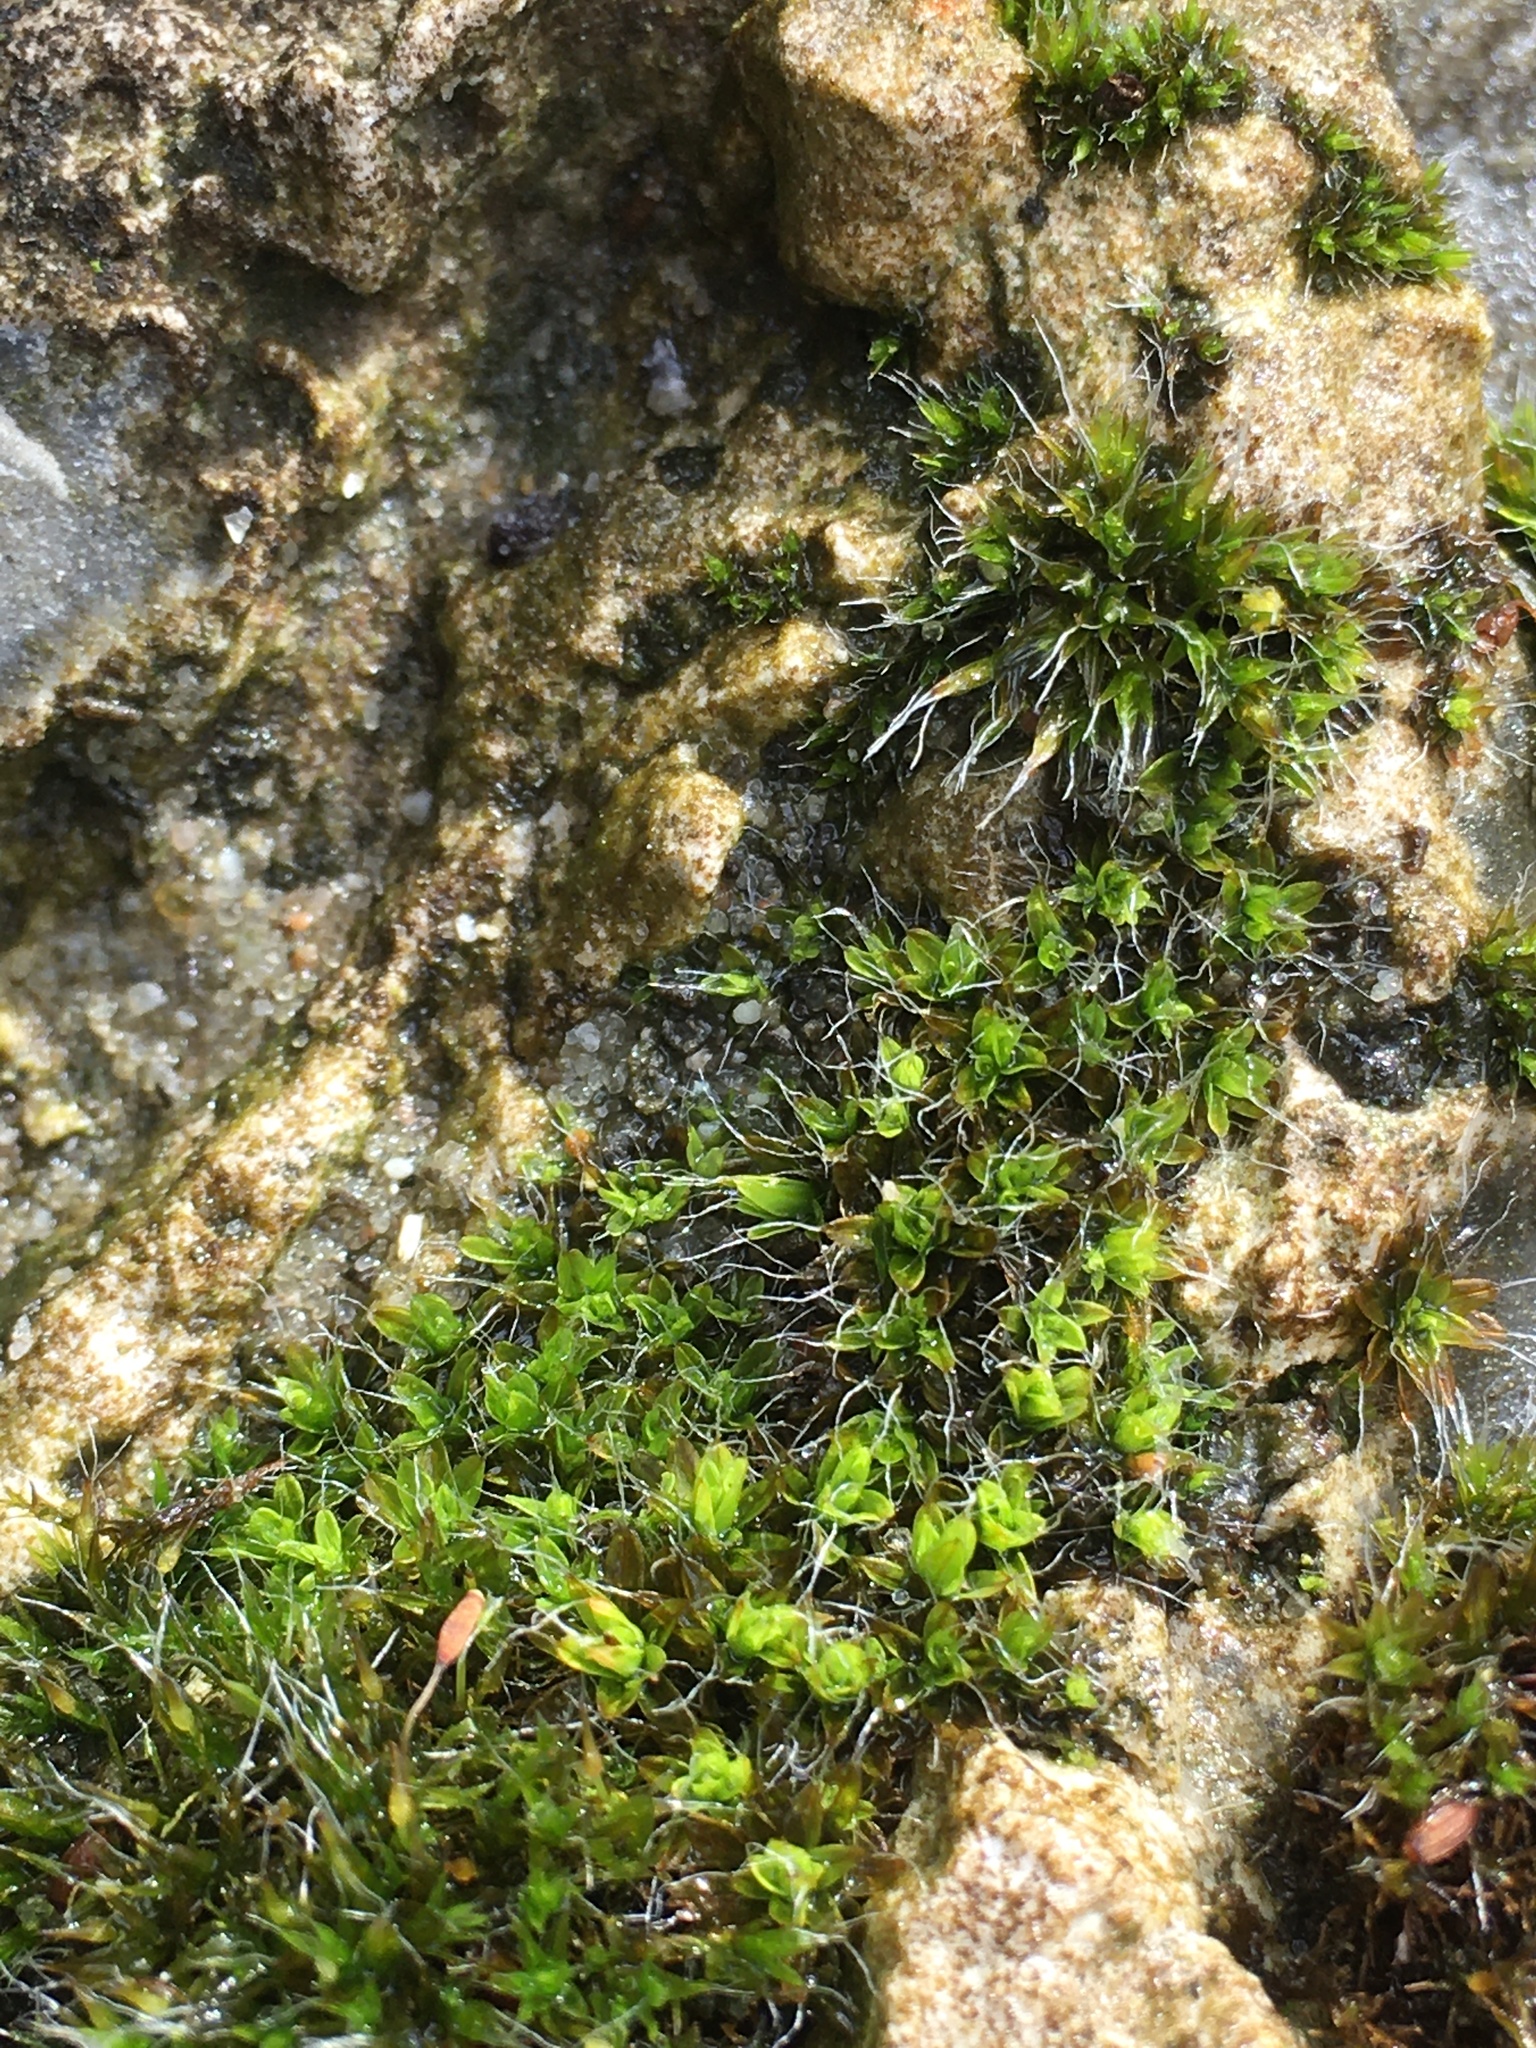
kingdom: Plantae
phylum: Bryophyta
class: Bryopsida
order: Pottiales
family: Pottiaceae
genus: Tortula
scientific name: Tortula muralis
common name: Wall screw-moss
